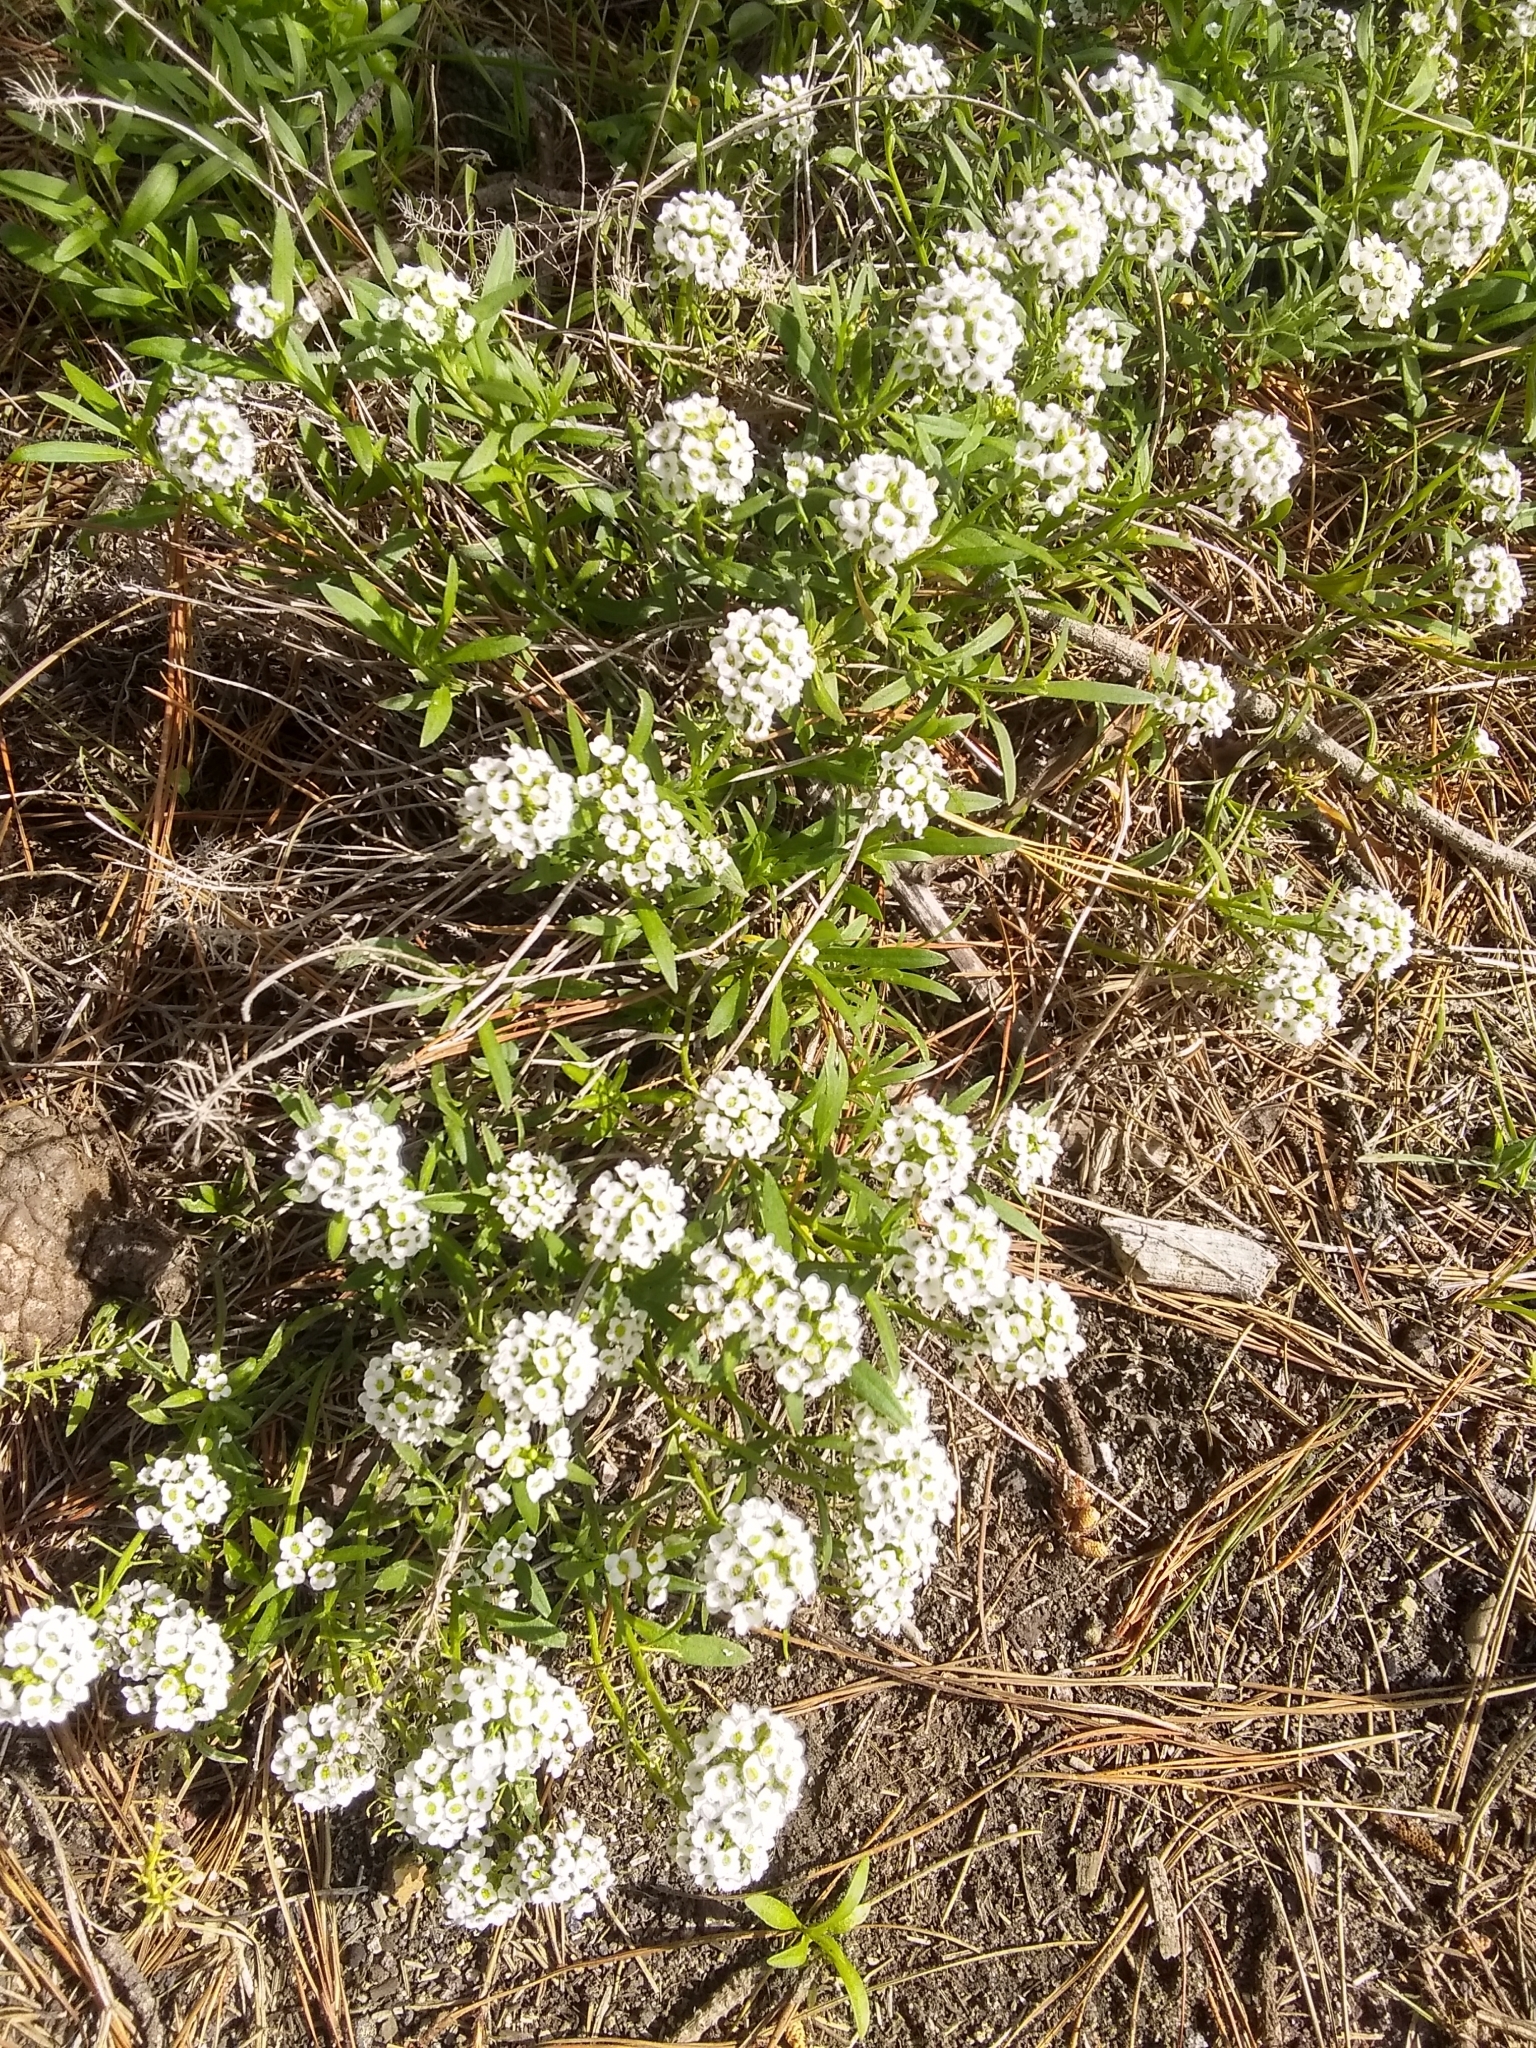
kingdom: Plantae
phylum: Tracheophyta
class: Magnoliopsida
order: Brassicales
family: Brassicaceae
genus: Lobularia
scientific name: Lobularia maritima
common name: Sweet alison
